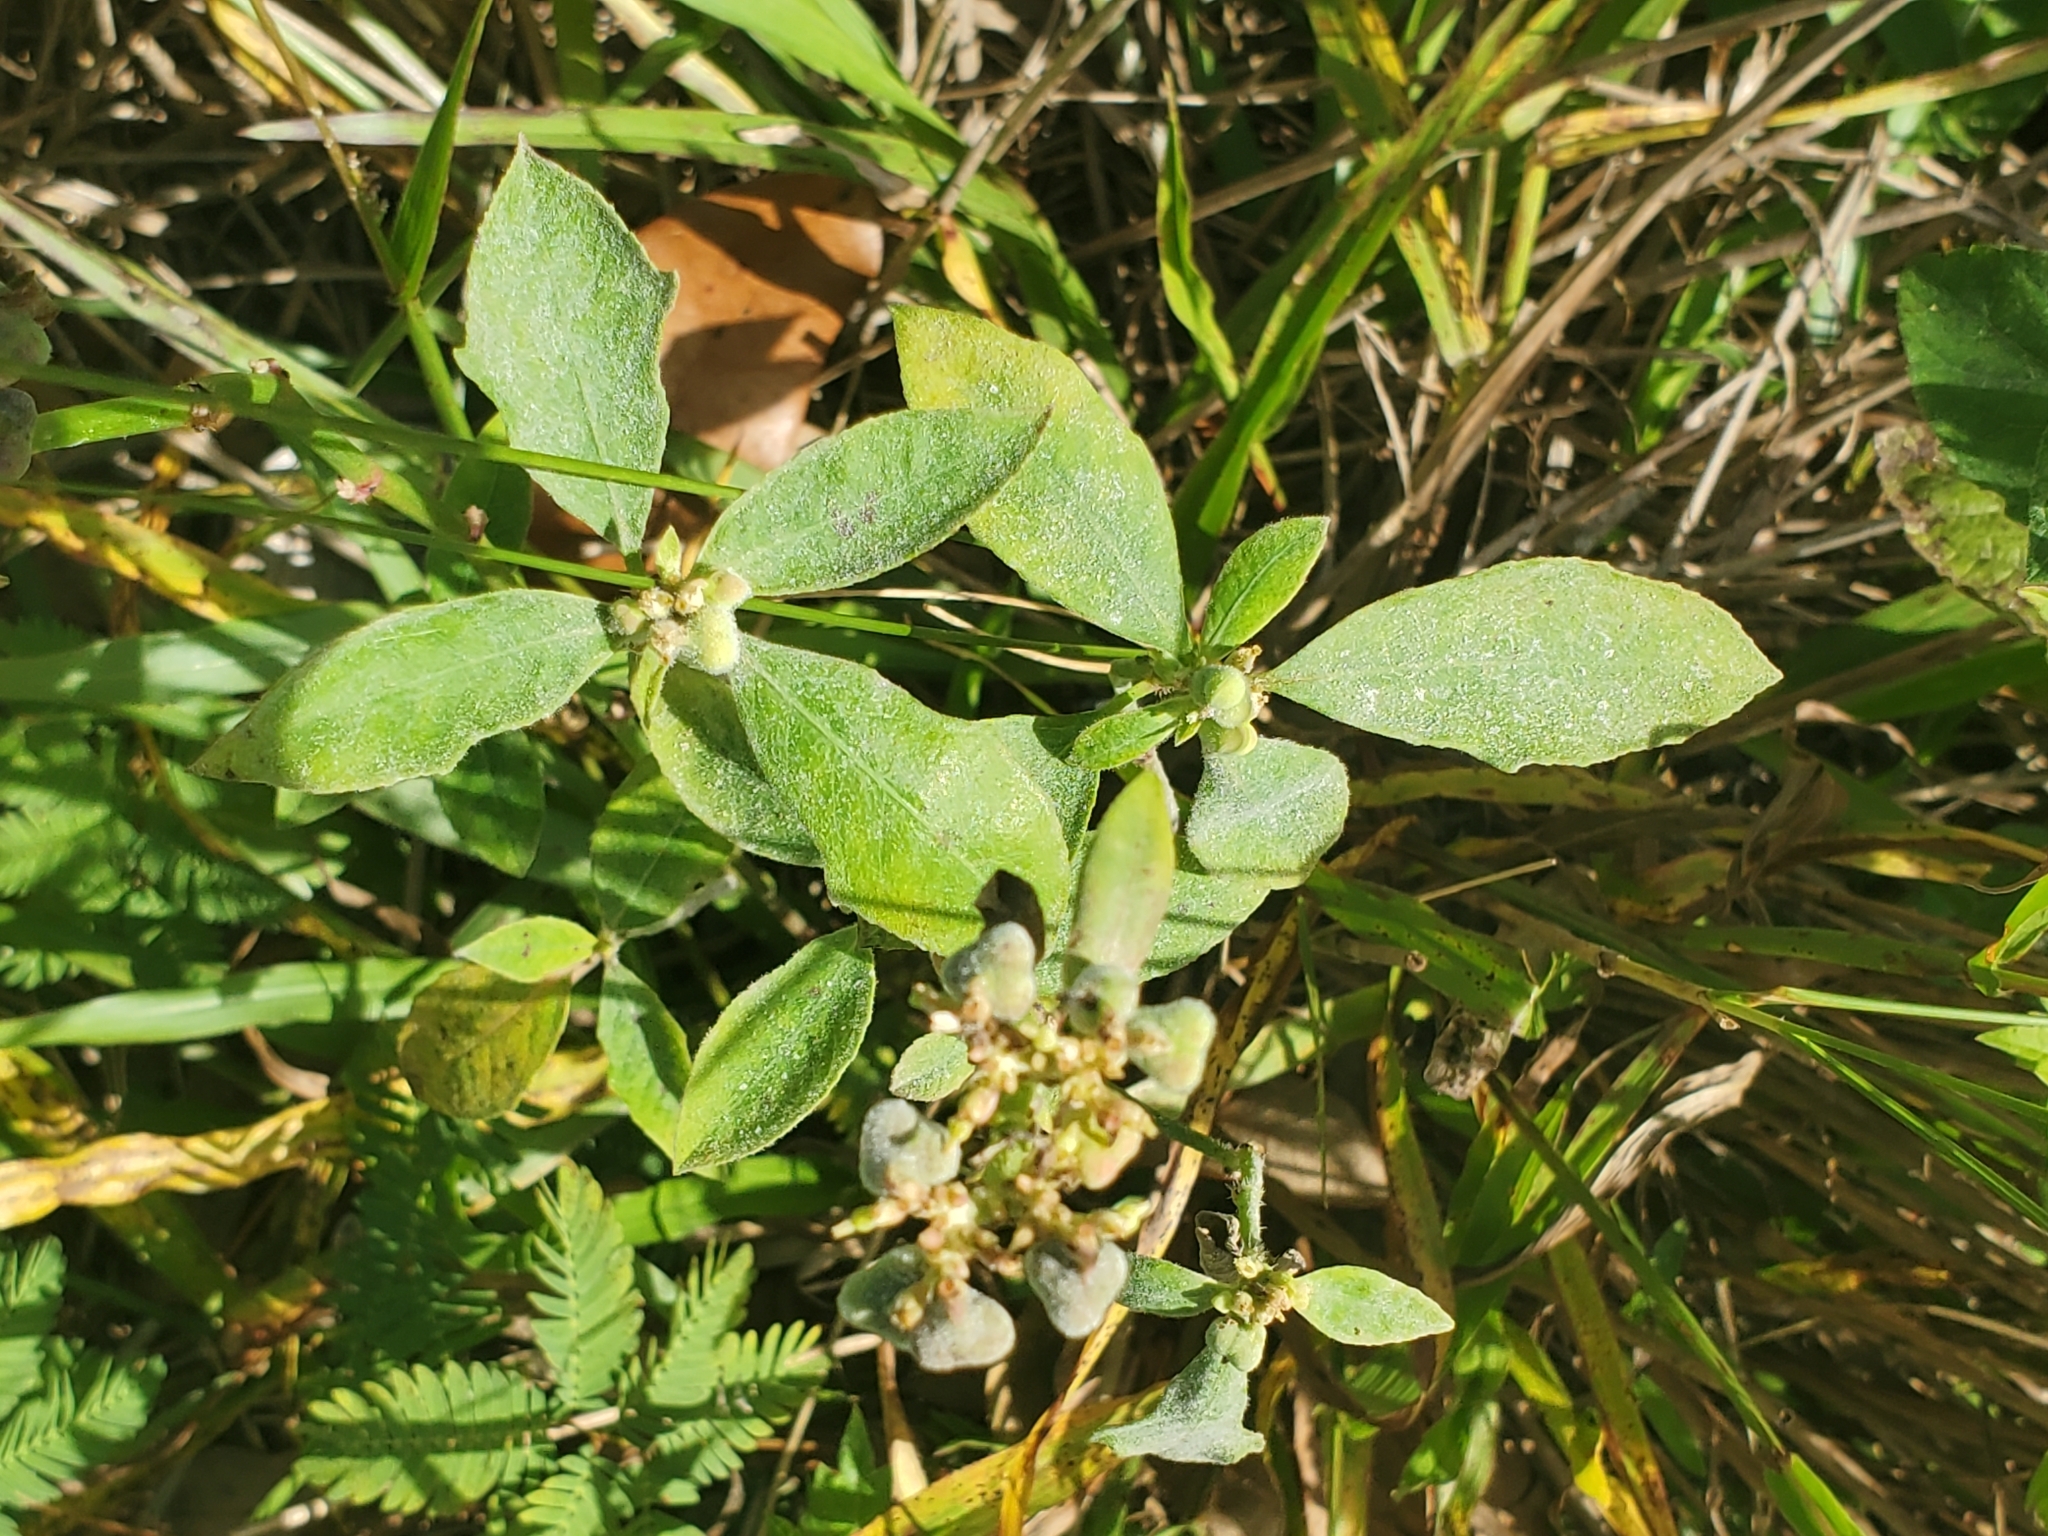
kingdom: Plantae
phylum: Tracheophyta
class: Magnoliopsida
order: Malpighiales
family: Euphorbiaceae
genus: Euphorbia
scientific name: Euphorbia heterophylla
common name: Mexican fireplant
